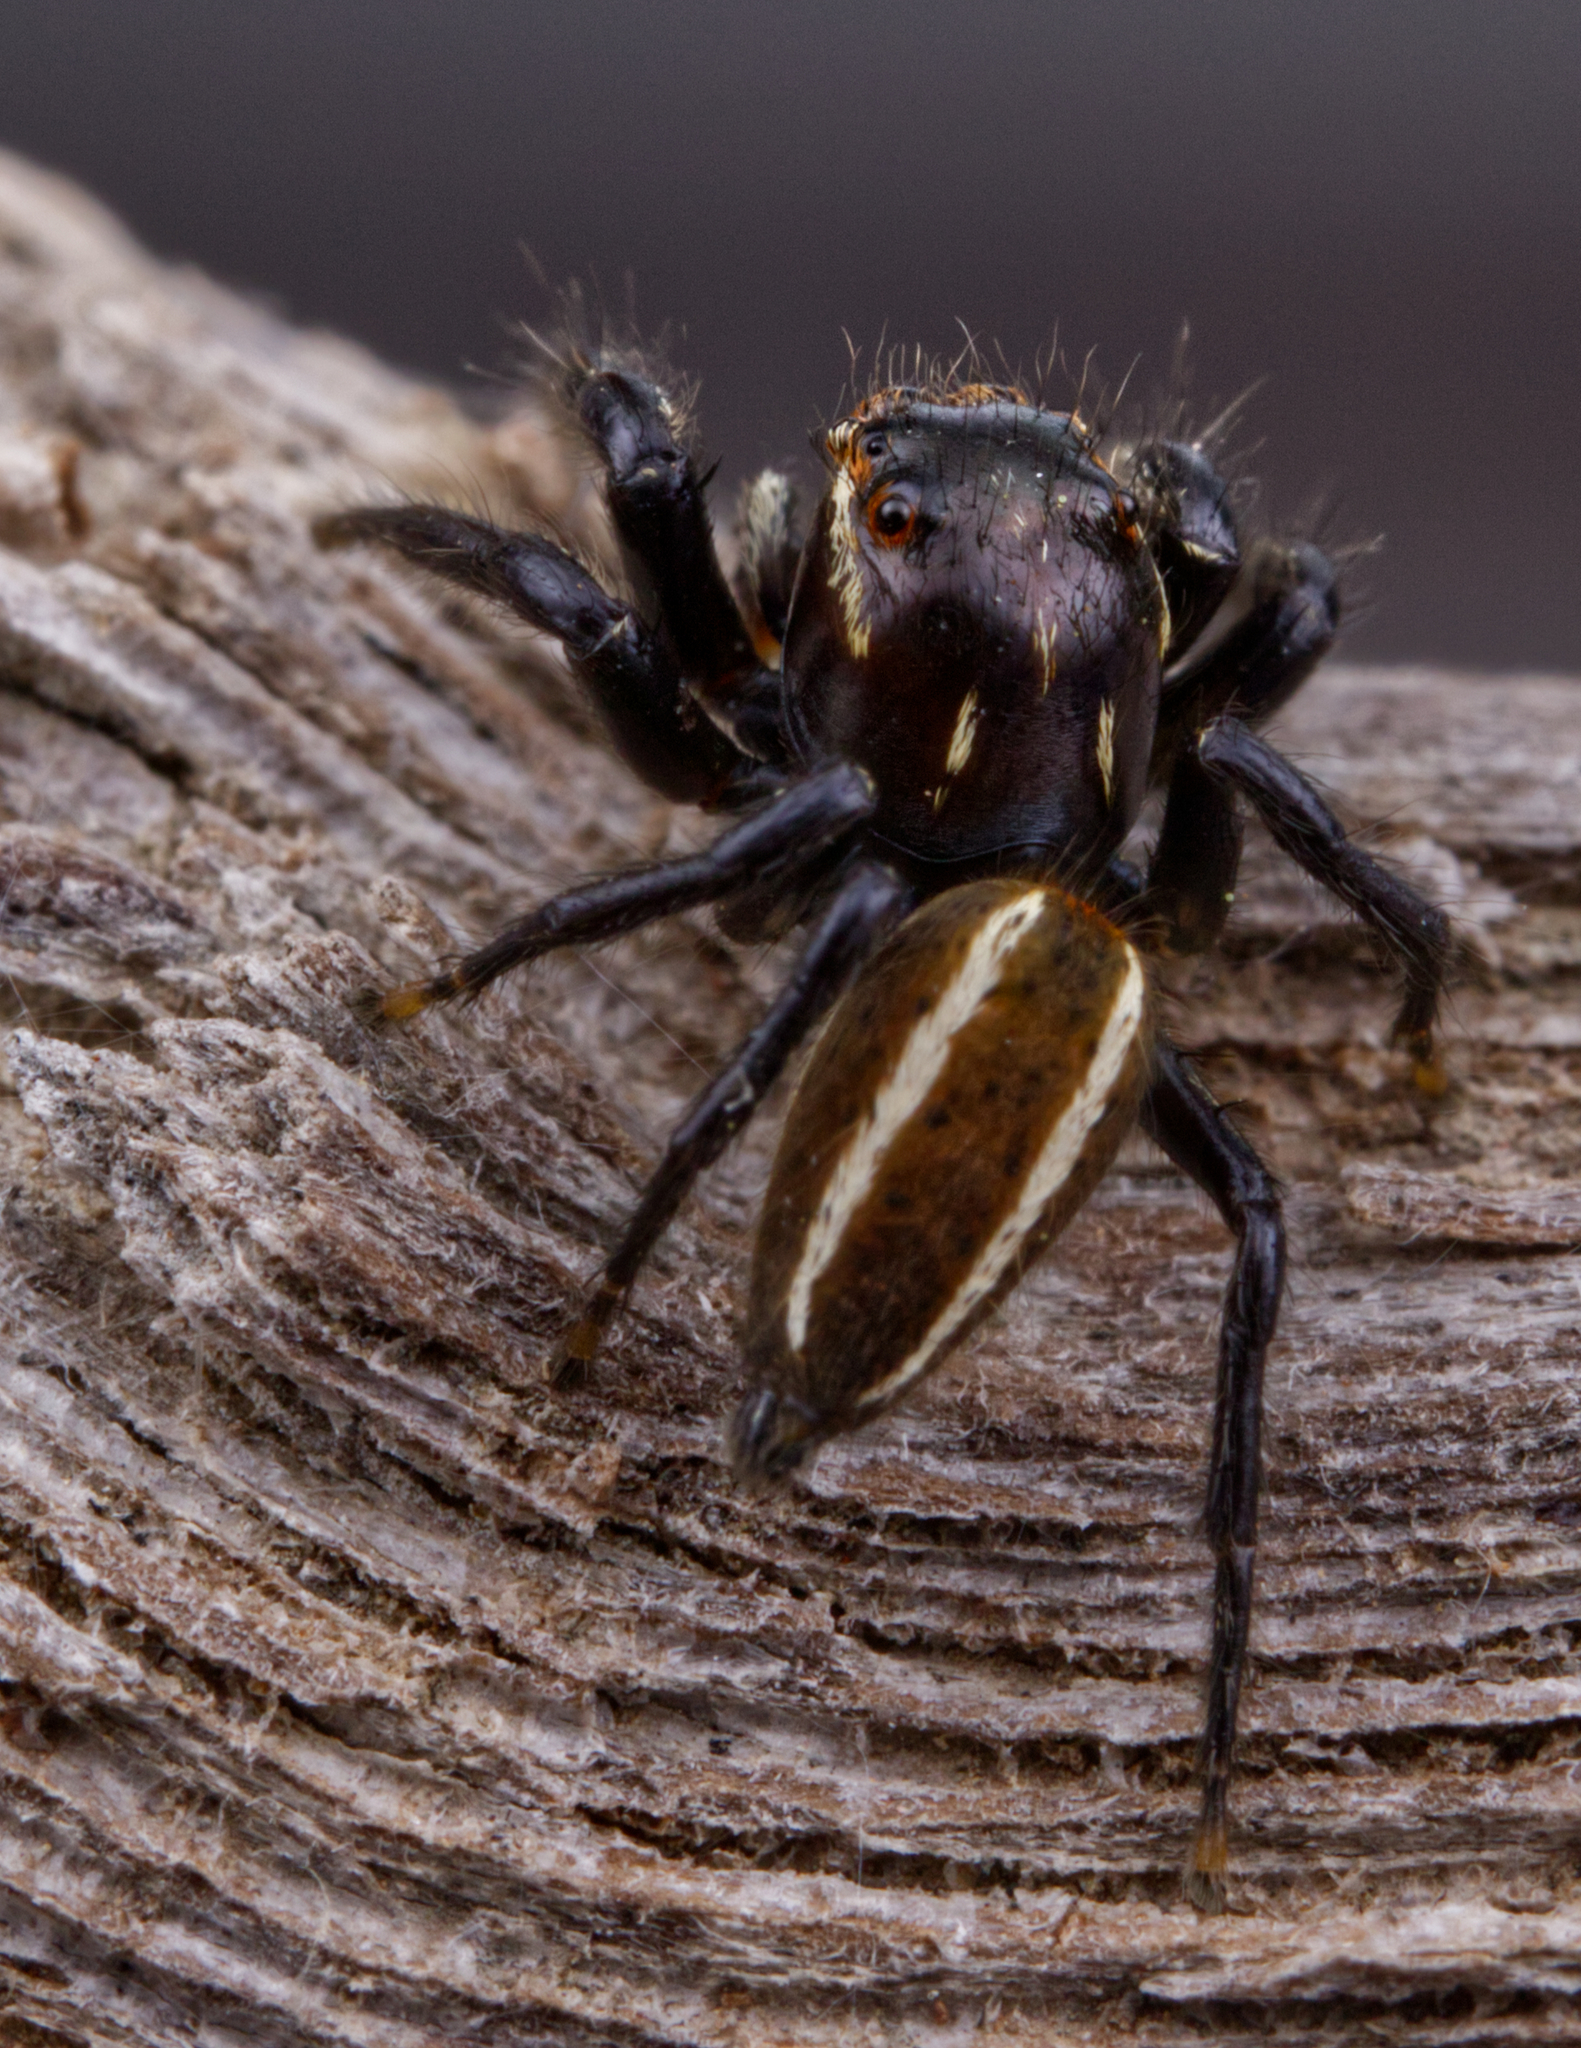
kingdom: Animalia
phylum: Arthropoda
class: Arachnida
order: Araneae
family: Salticidae
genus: Colonus
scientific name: Colonus puerperus
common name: Jumping spiders
